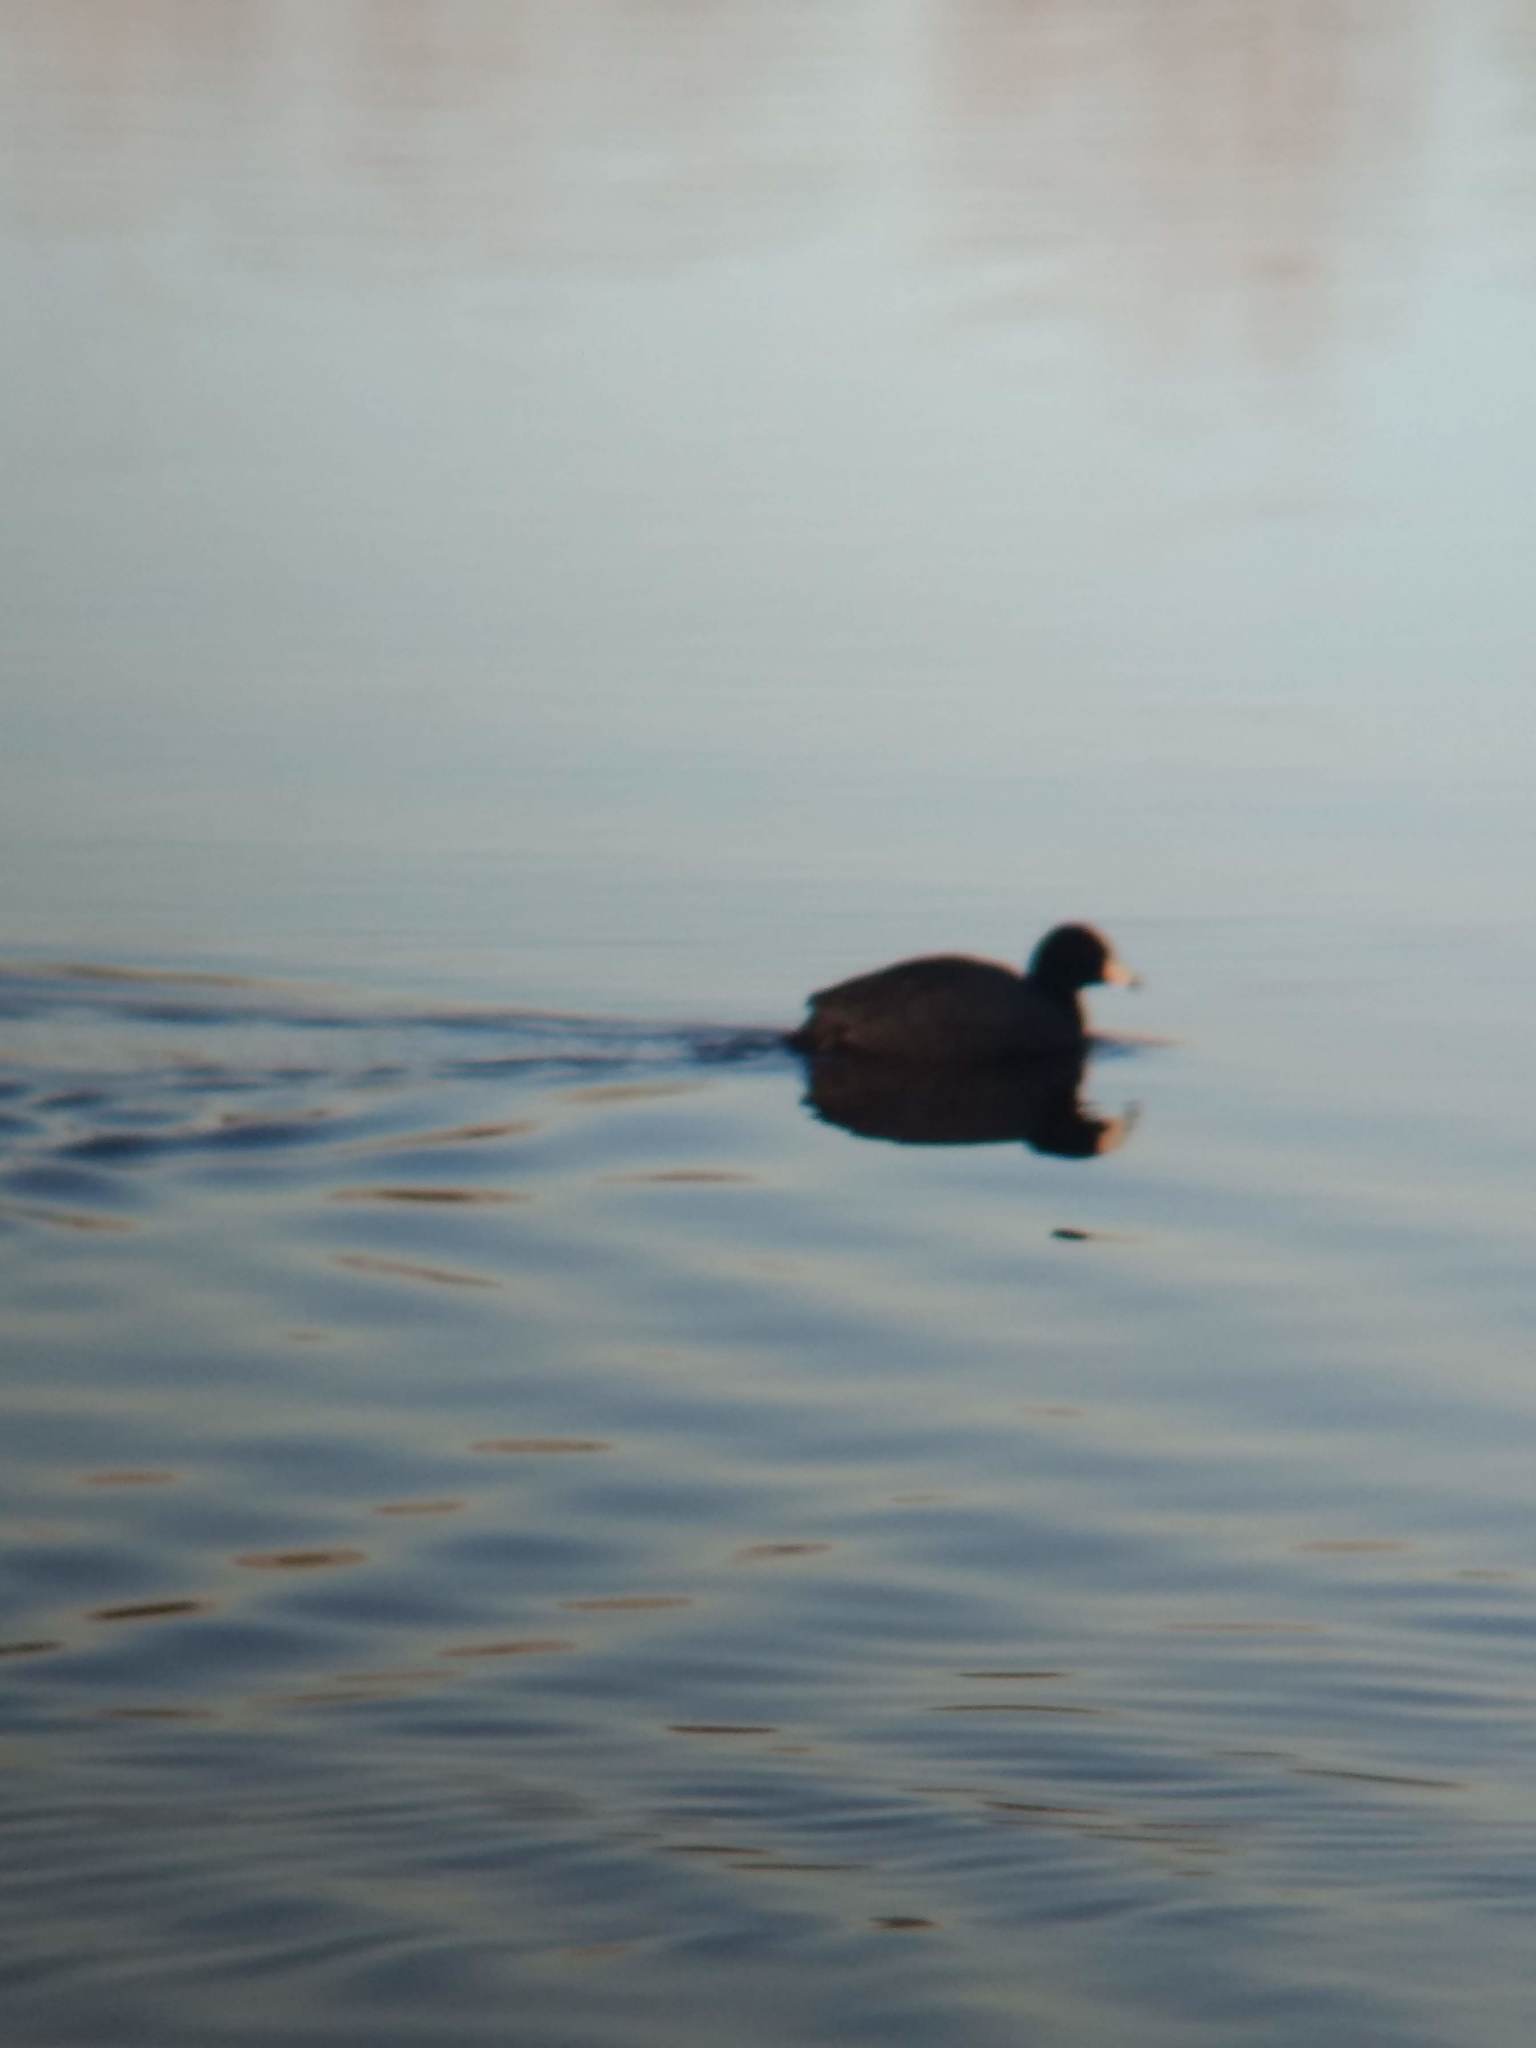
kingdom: Animalia
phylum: Chordata
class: Aves
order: Gruiformes
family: Rallidae
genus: Fulica
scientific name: Fulica americana
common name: American coot
